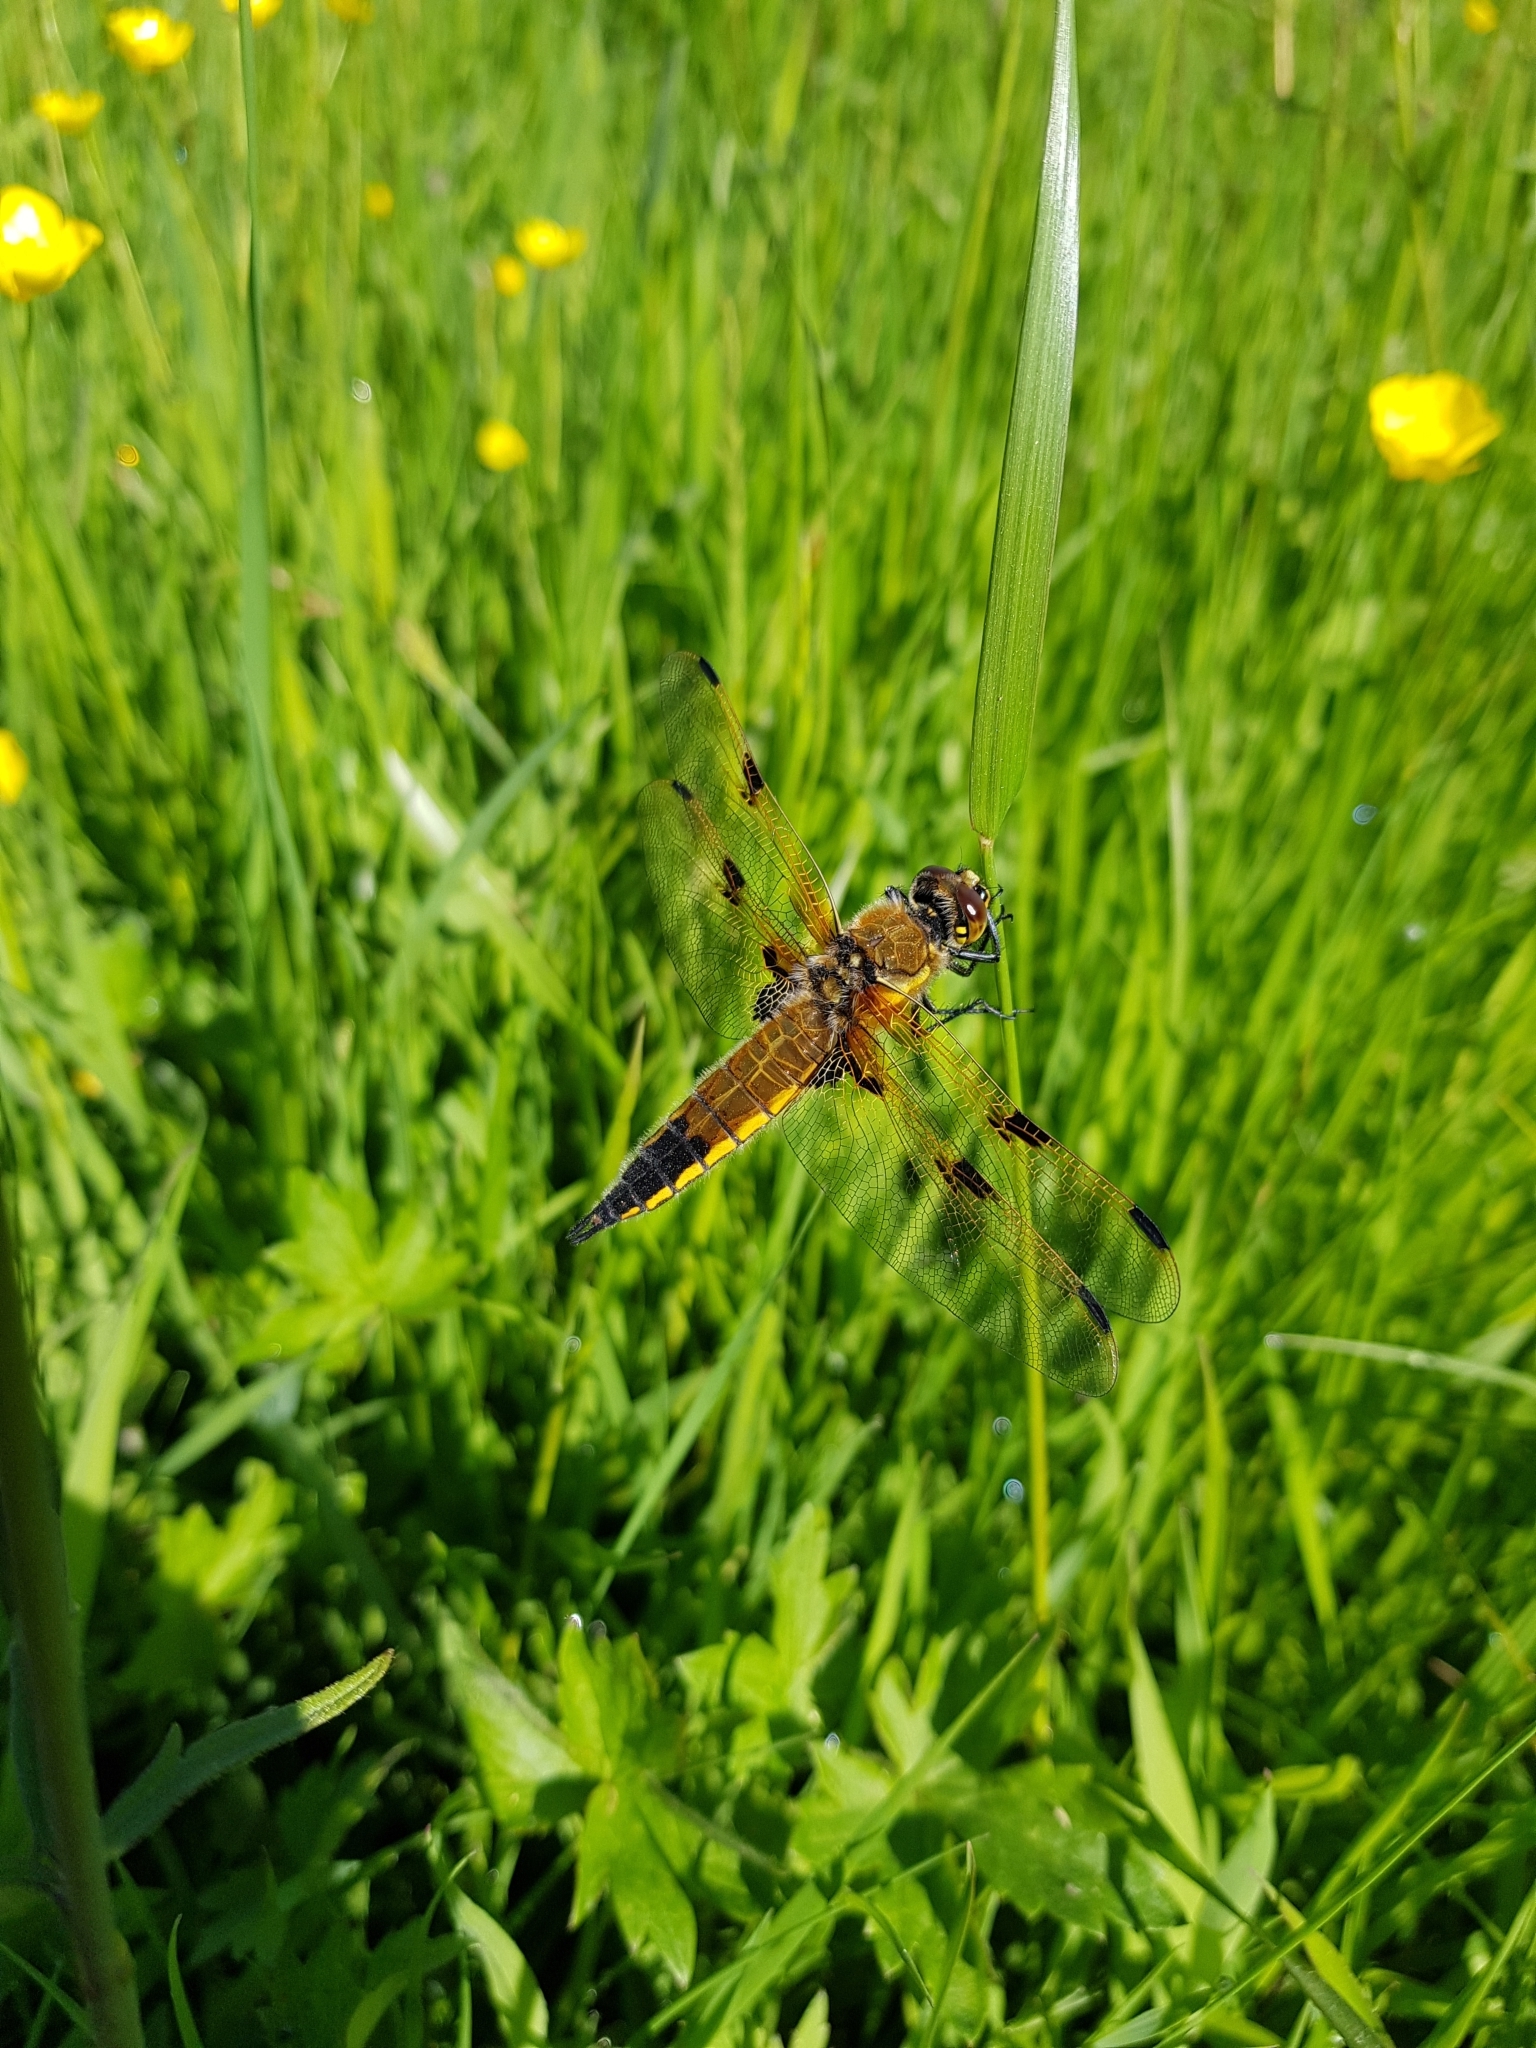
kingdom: Animalia
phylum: Arthropoda
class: Insecta
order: Odonata
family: Libellulidae
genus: Libellula
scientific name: Libellula quadrimaculata
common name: Four-spotted chaser
